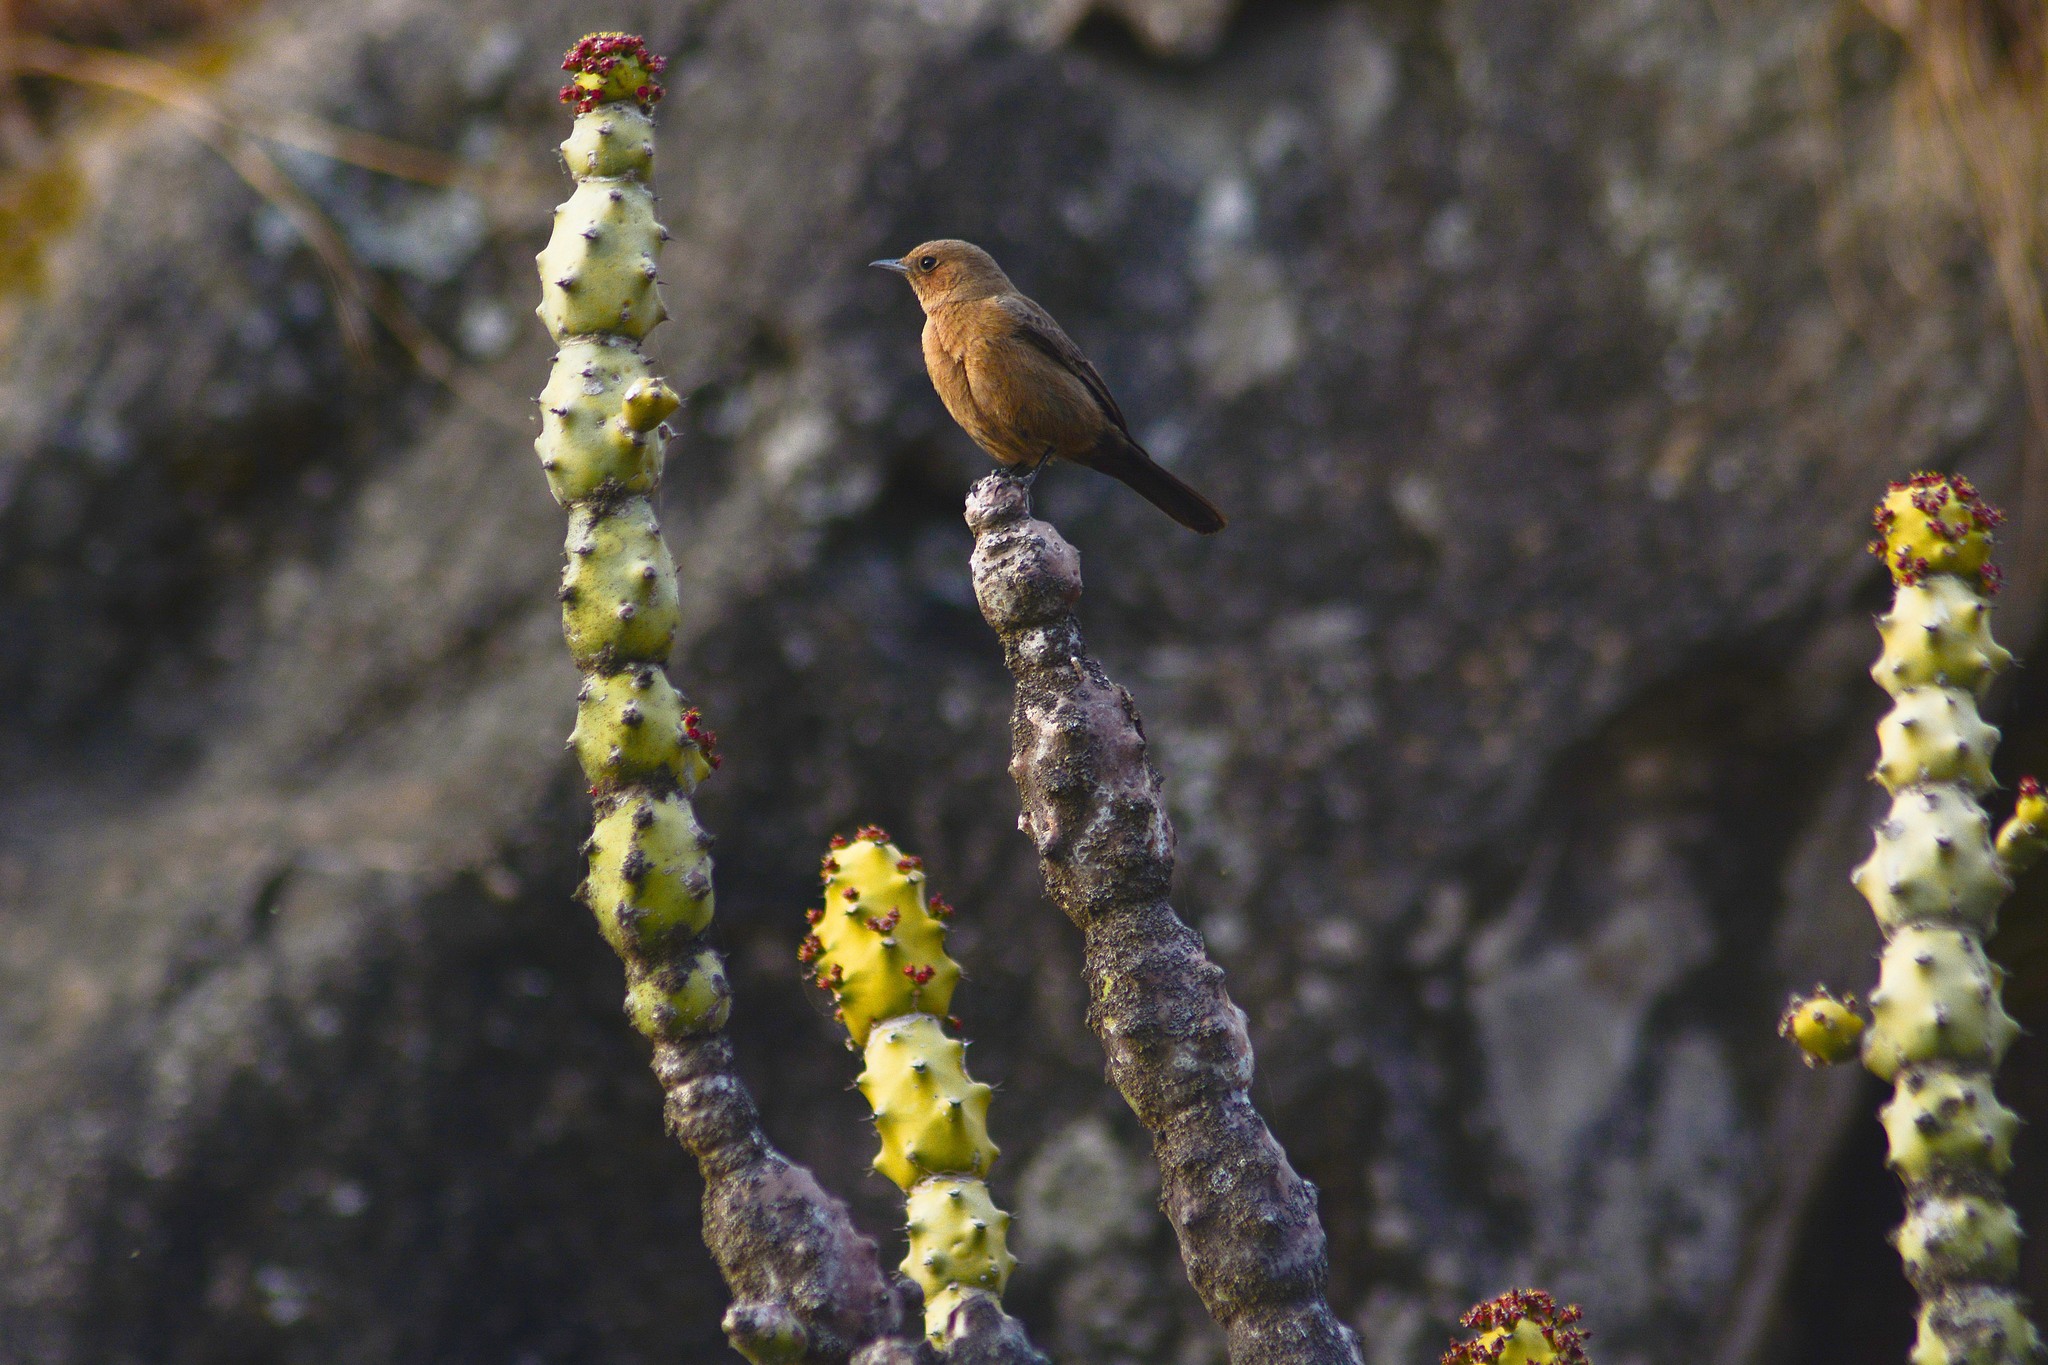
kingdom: Animalia
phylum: Chordata
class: Aves
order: Passeriformes
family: Muscicapidae
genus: Oenanthe
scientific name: Oenanthe fusca
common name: Brown rock chat
